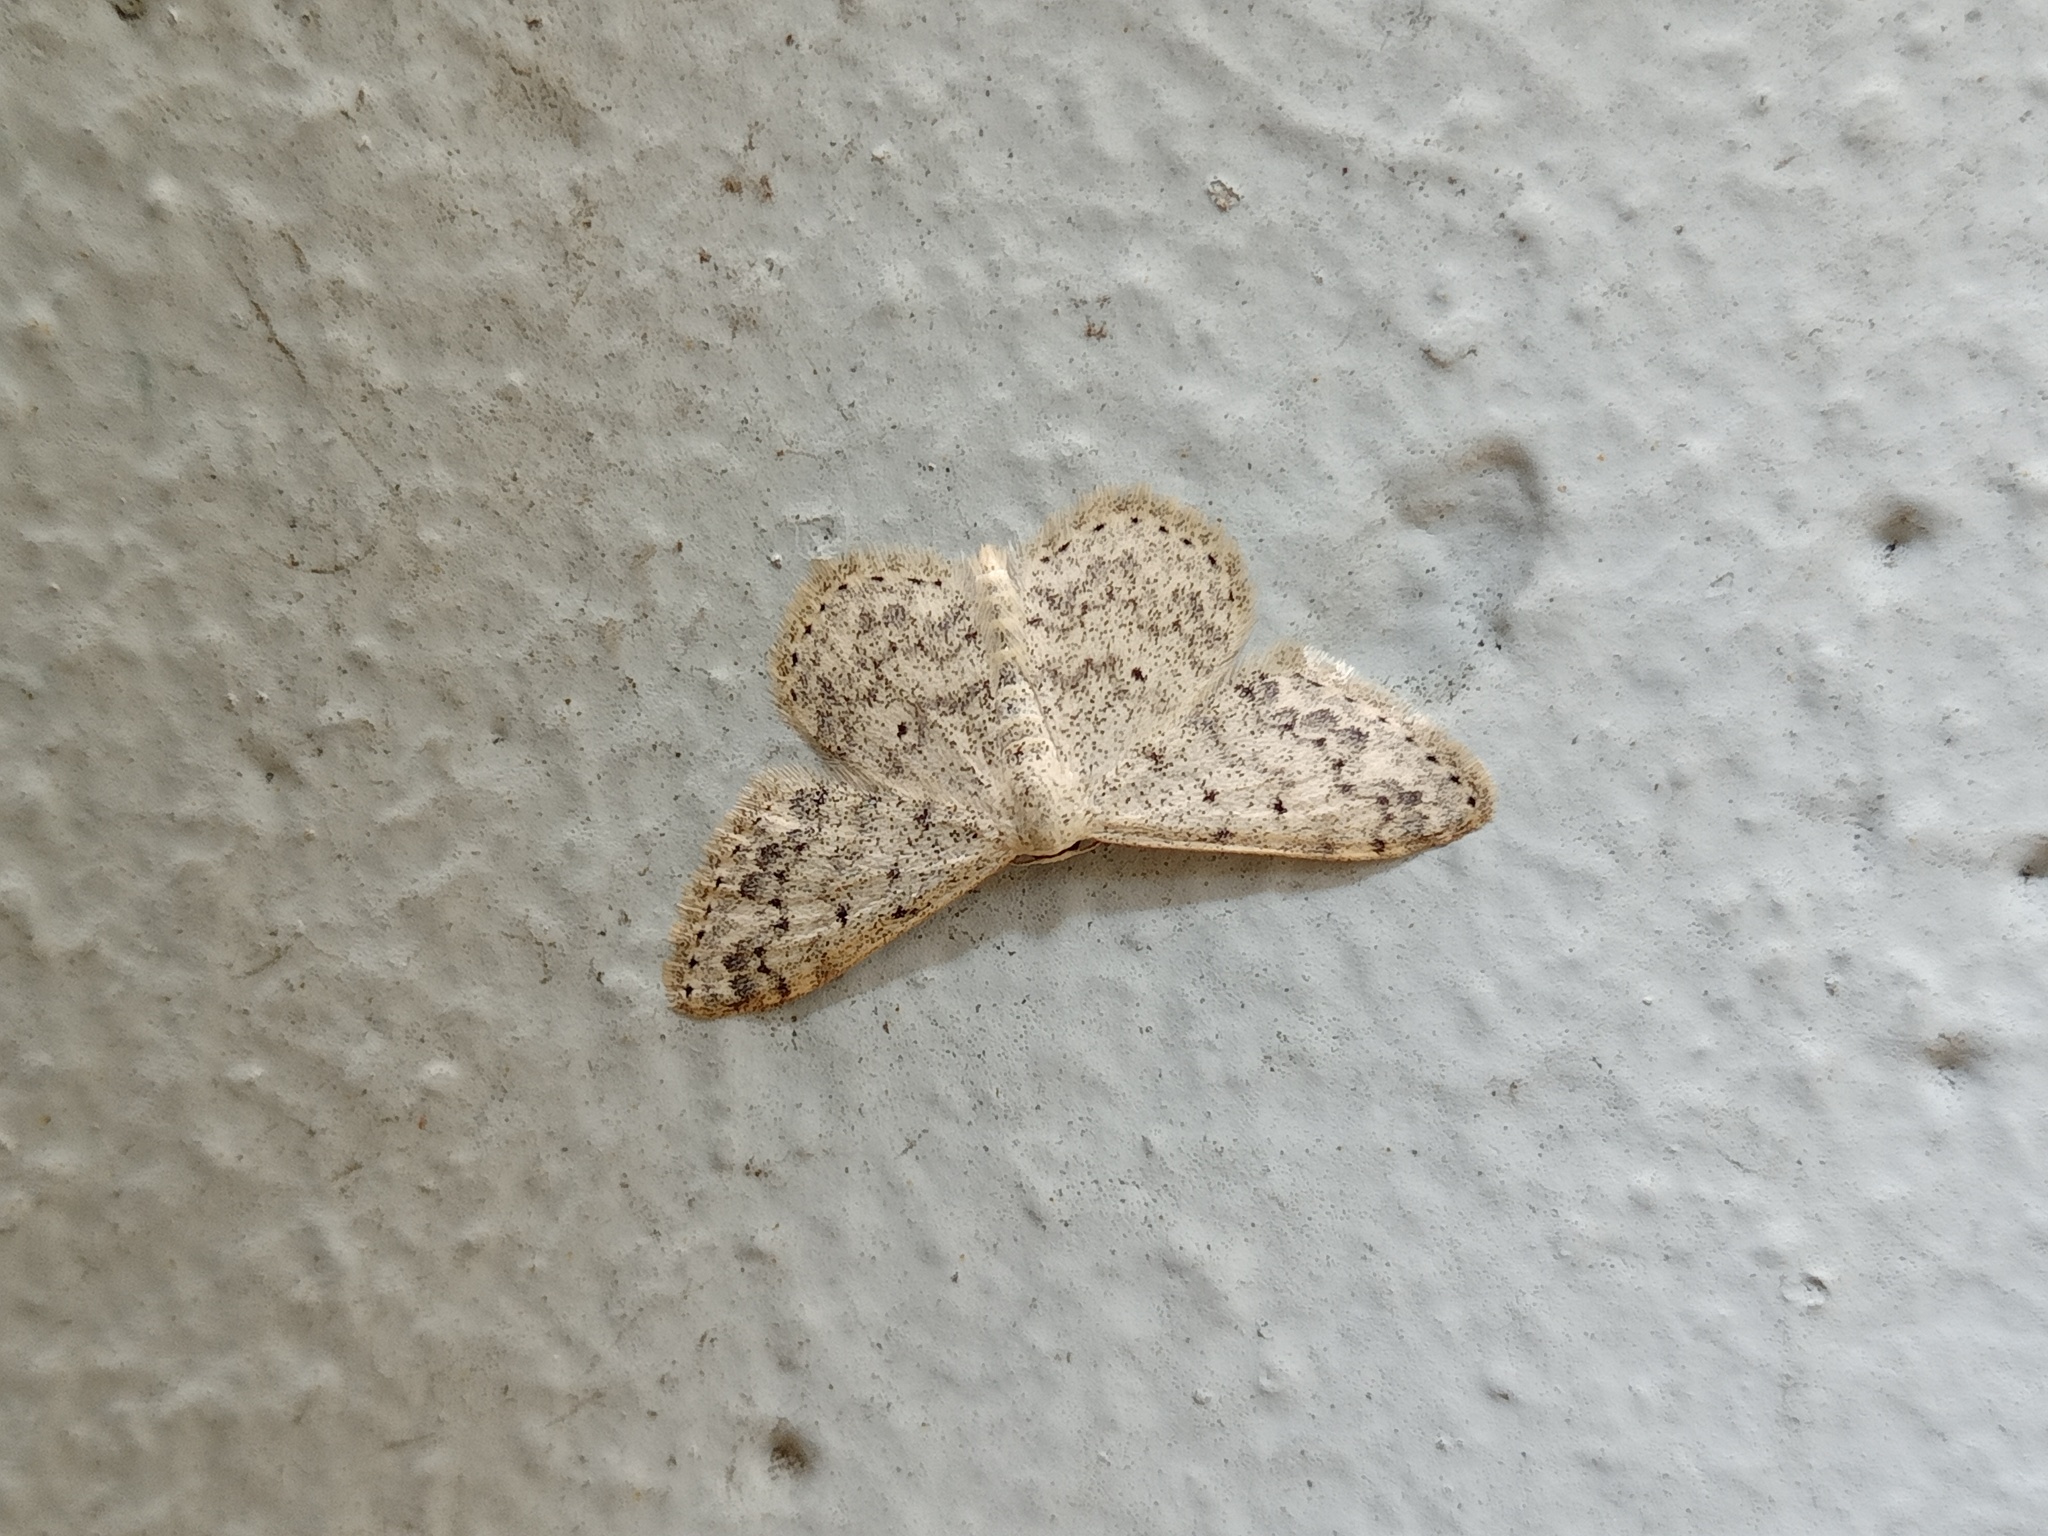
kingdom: Animalia
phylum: Arthropoda
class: Insecta
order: Lepidoptera
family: Geometridae
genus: Scopula
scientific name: Scopula marginepunctata
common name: Mullein wave
